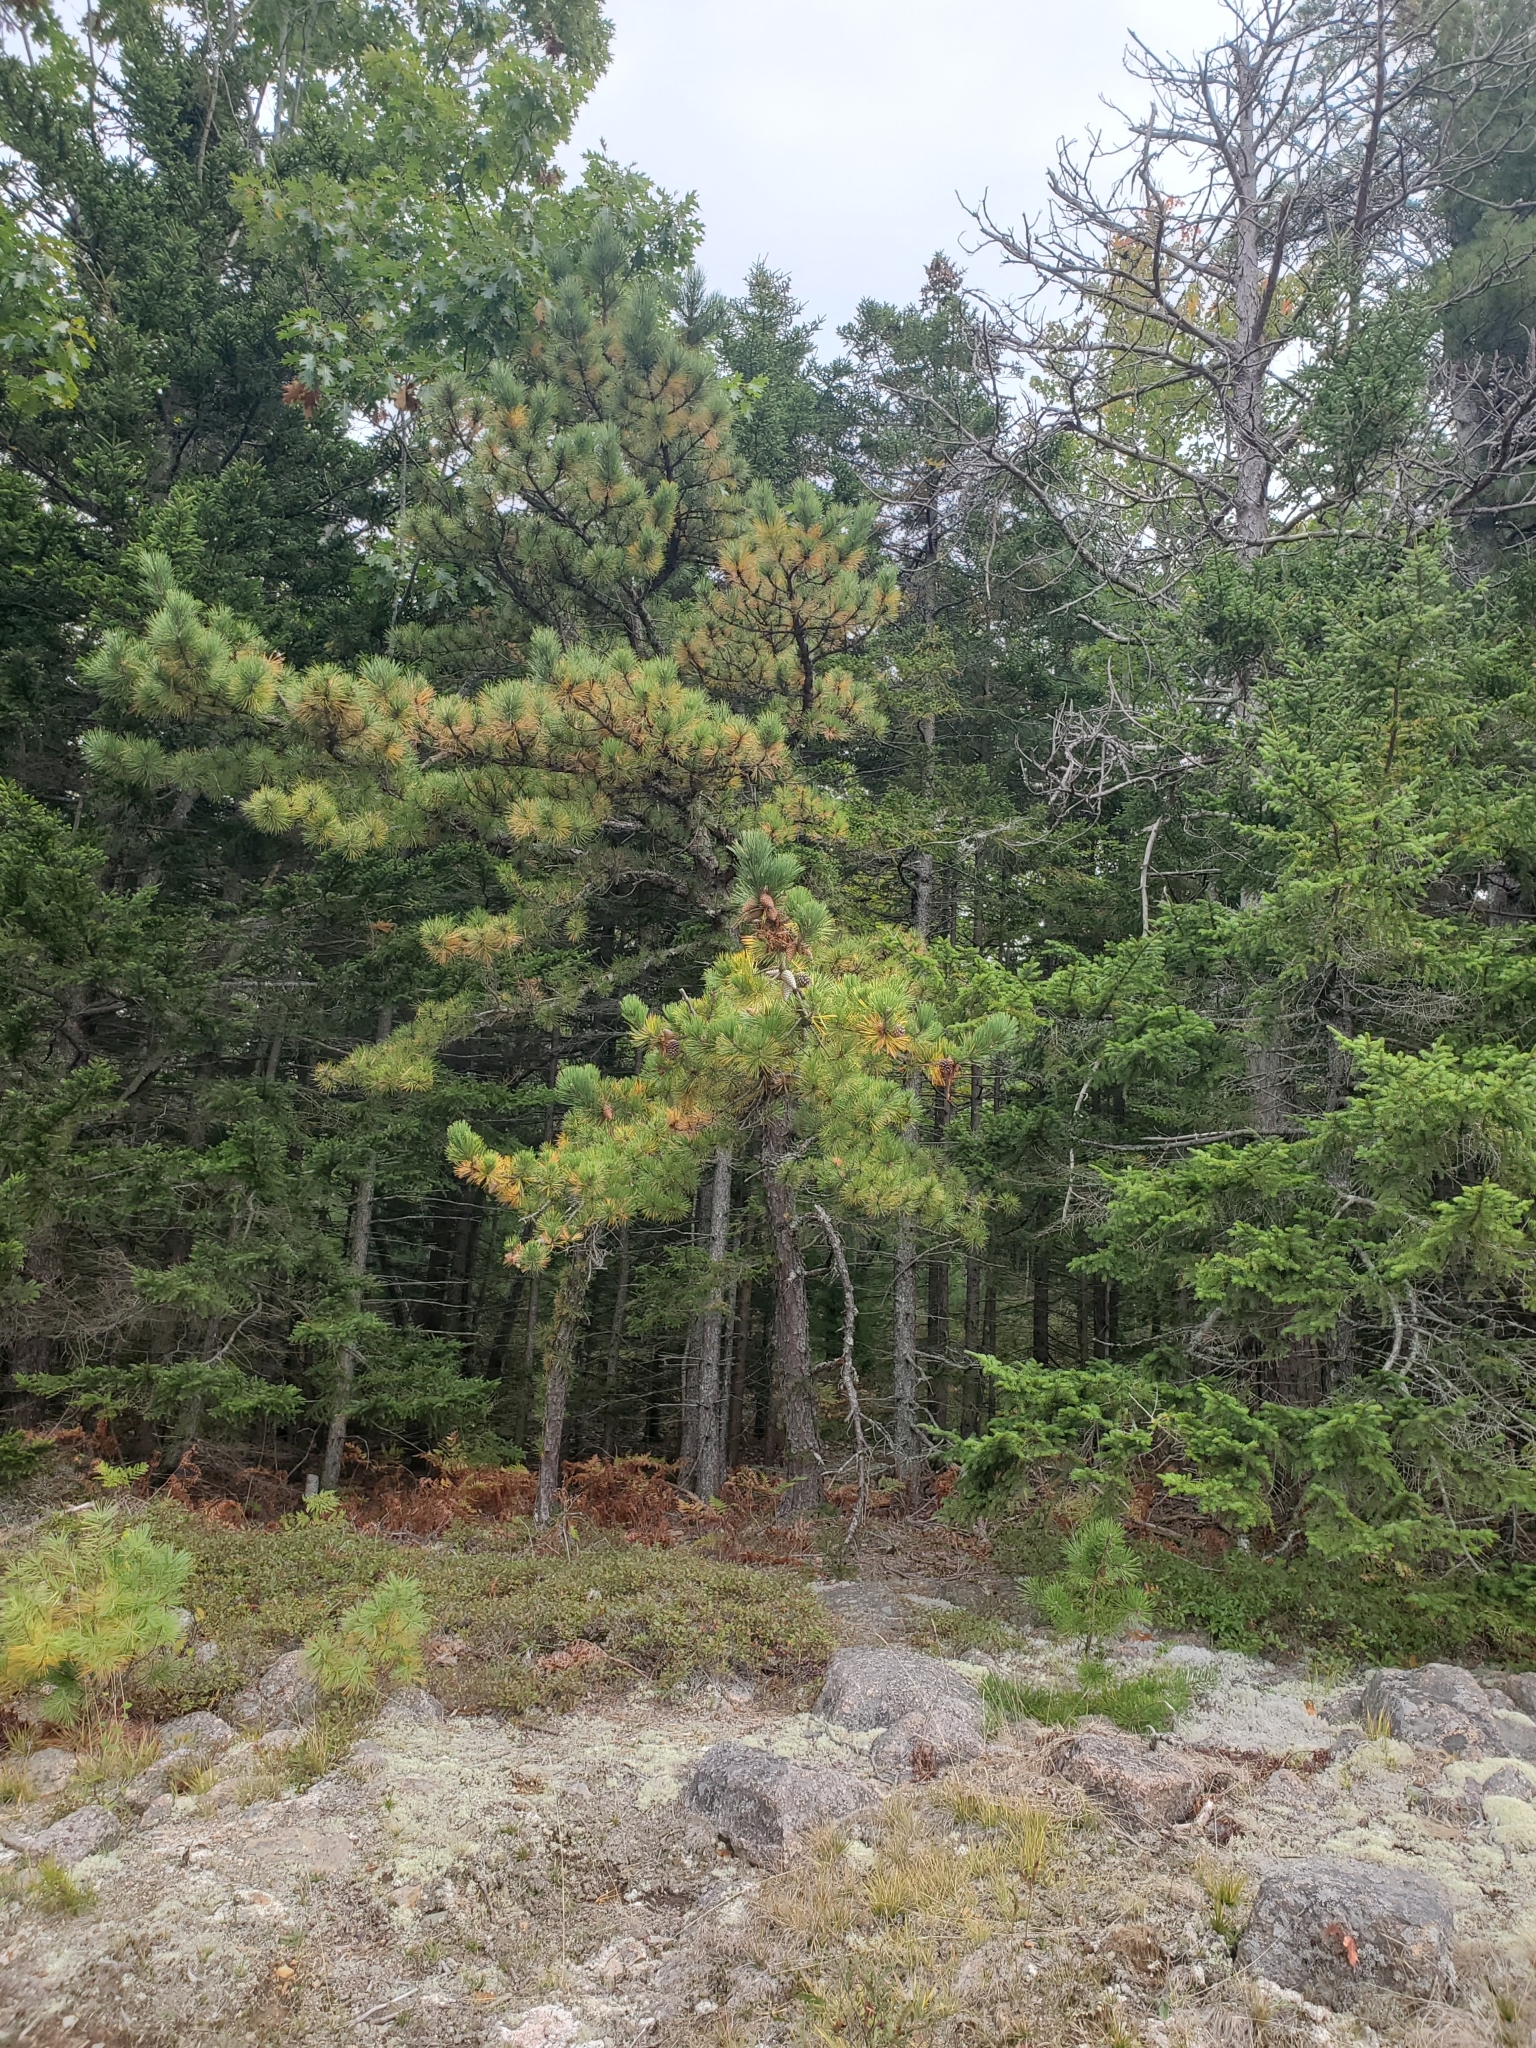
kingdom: Plantae
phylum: Tracheophyta
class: Pinopsida
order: Pinales
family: Pinaceae
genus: Pinus
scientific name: Pinus rigida
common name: Pitch pine
